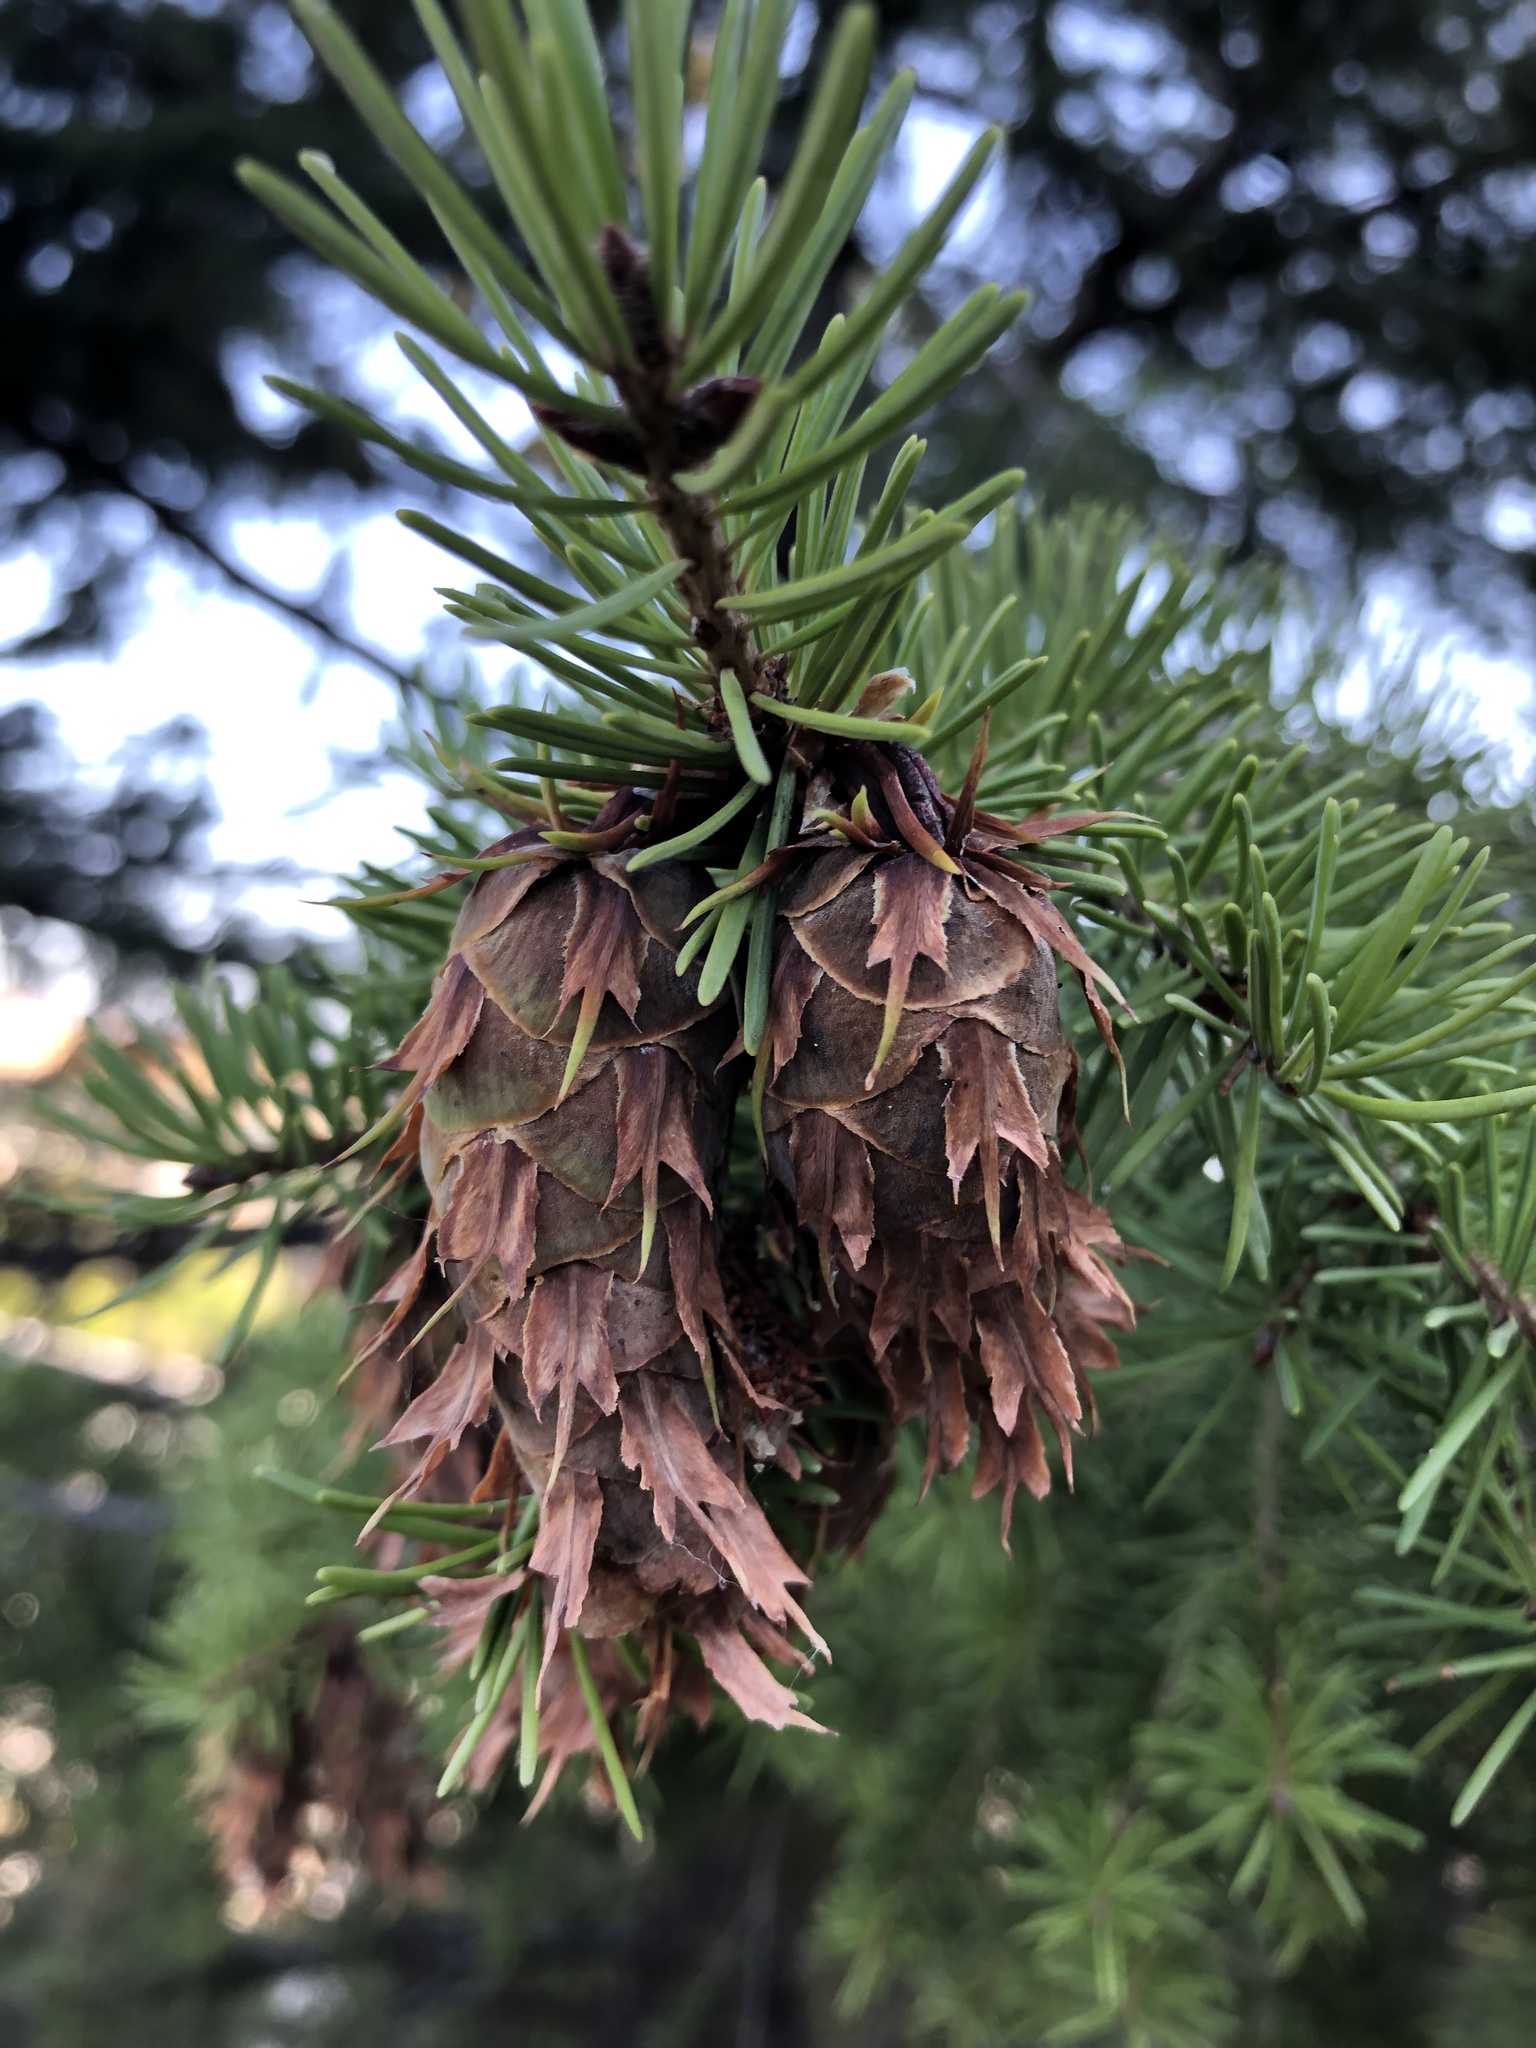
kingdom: Plantae
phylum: Tracheophyta
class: Pinopsida
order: Pinales
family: Pinaceae
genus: Pseudotsuga
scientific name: Pseudotsuga menziesii
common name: Douglas fir
